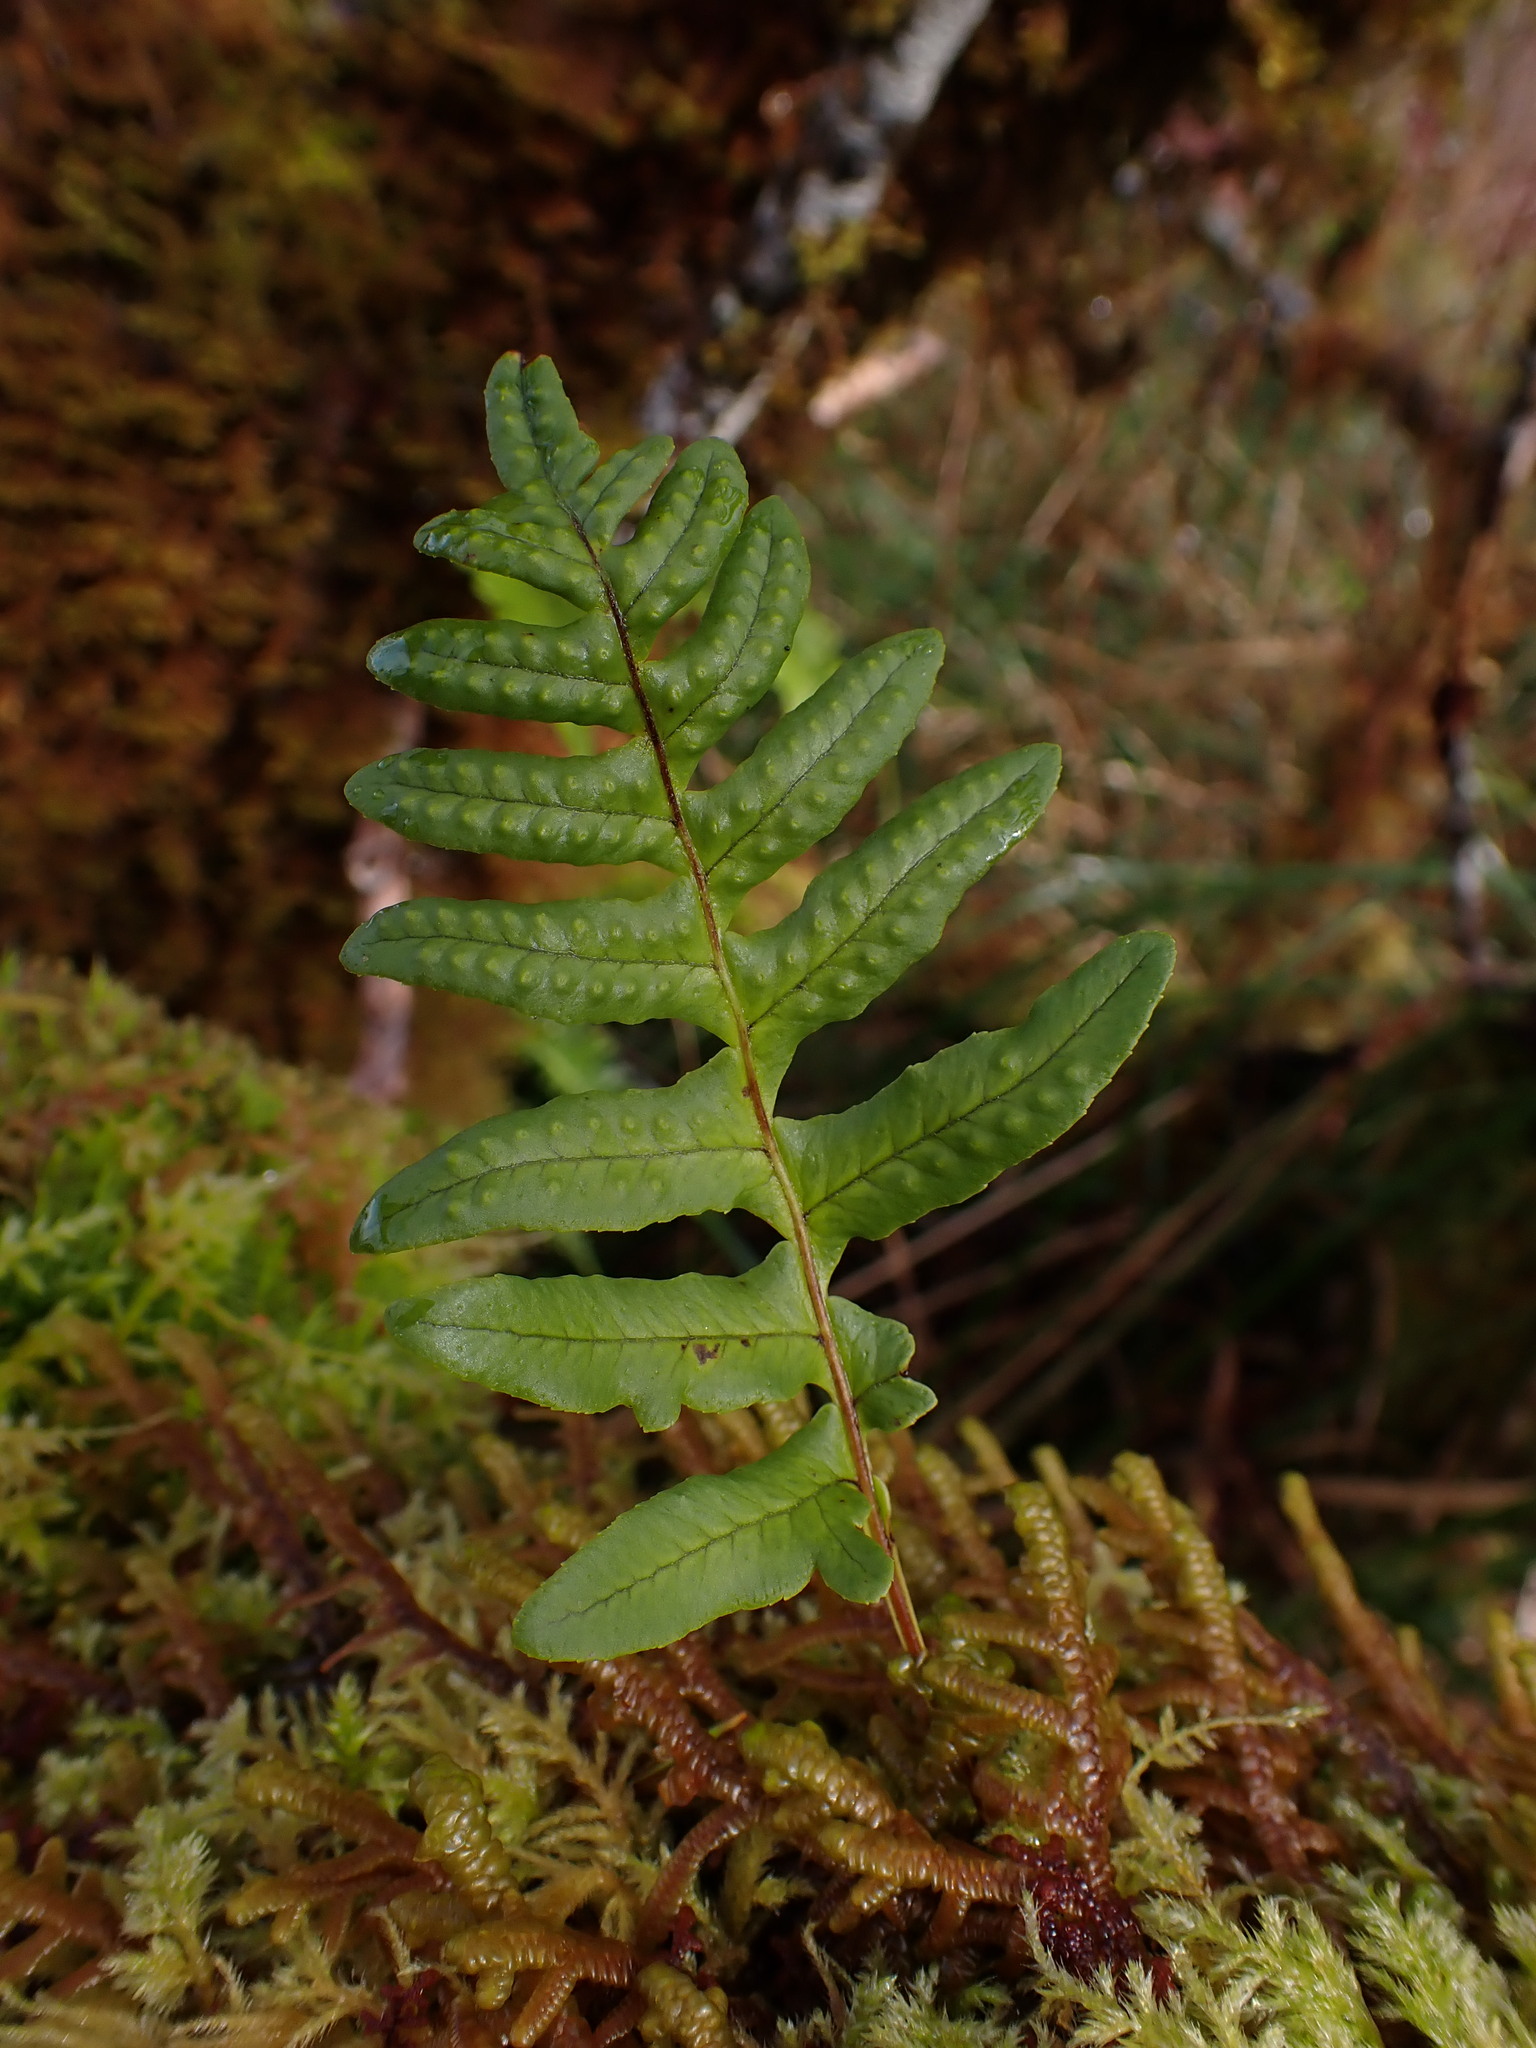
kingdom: Plantae
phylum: Tracheophyta
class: Polypodiopsida
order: Polypodiales
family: Polypodiaceae
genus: Polypodium
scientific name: Polypodium glycyrrhiza
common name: Licorice fern
